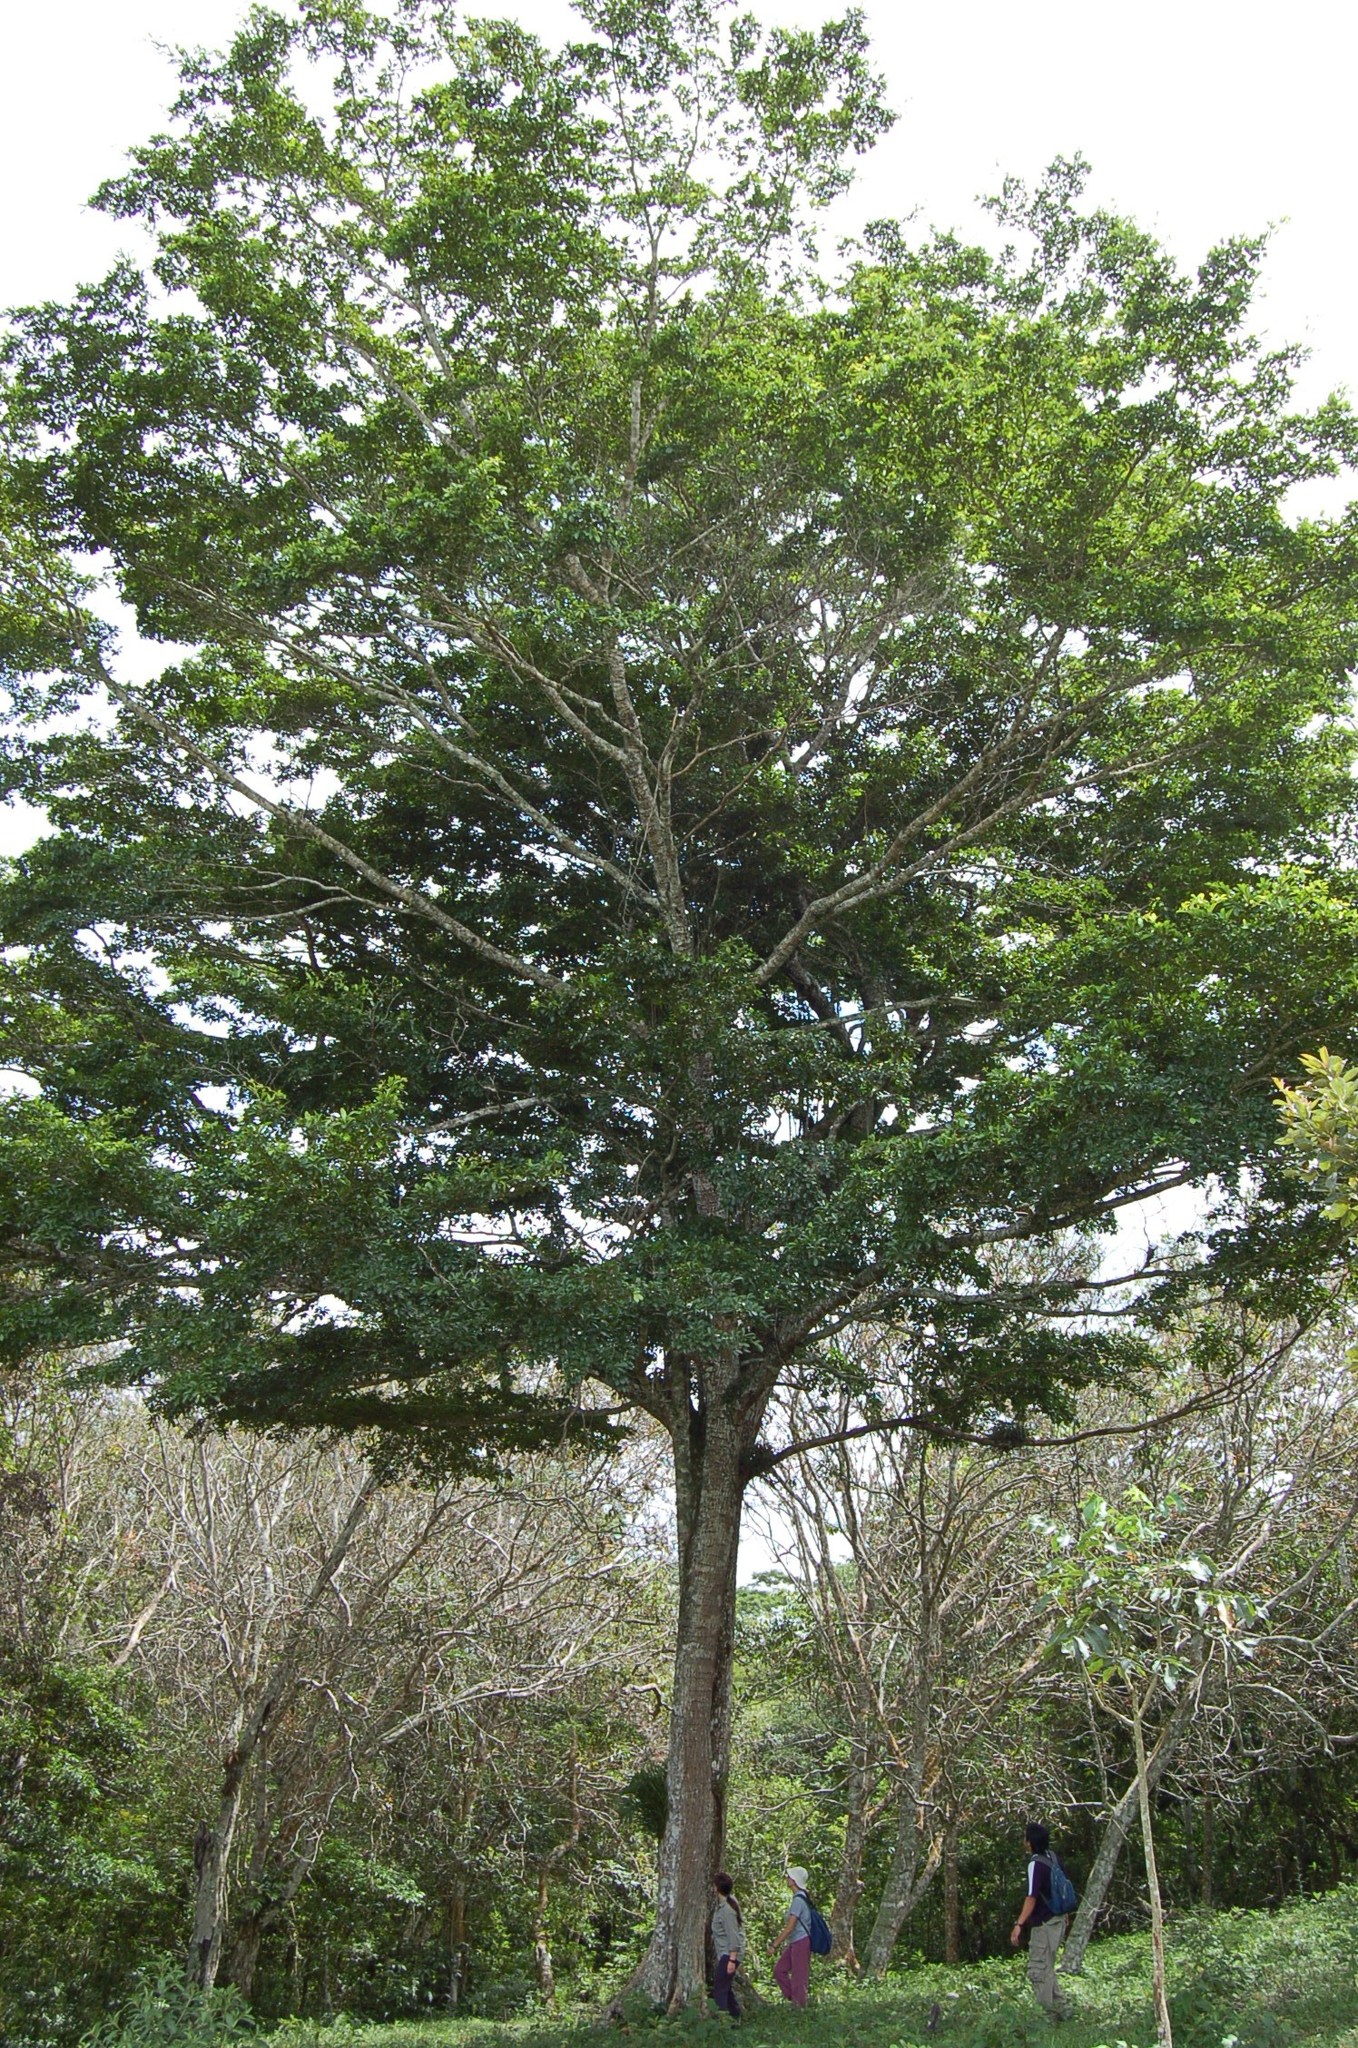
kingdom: Plantae
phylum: Tracheophyta
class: Magnoliopsida
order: Myrtales
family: Combretaceae
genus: Terminalia
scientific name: Terminalia oblonga
